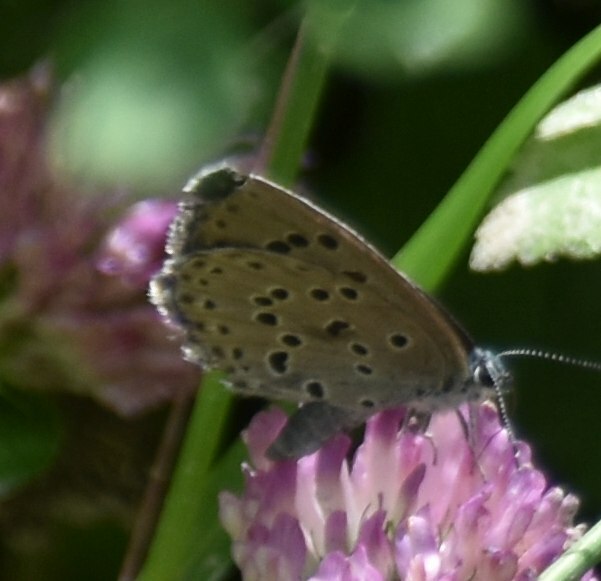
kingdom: Animalia
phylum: Arthropoda
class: Insecta
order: Lepidoptera
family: Lycaenidae
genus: Maculinea
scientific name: Maculinea arion
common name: Large blue
